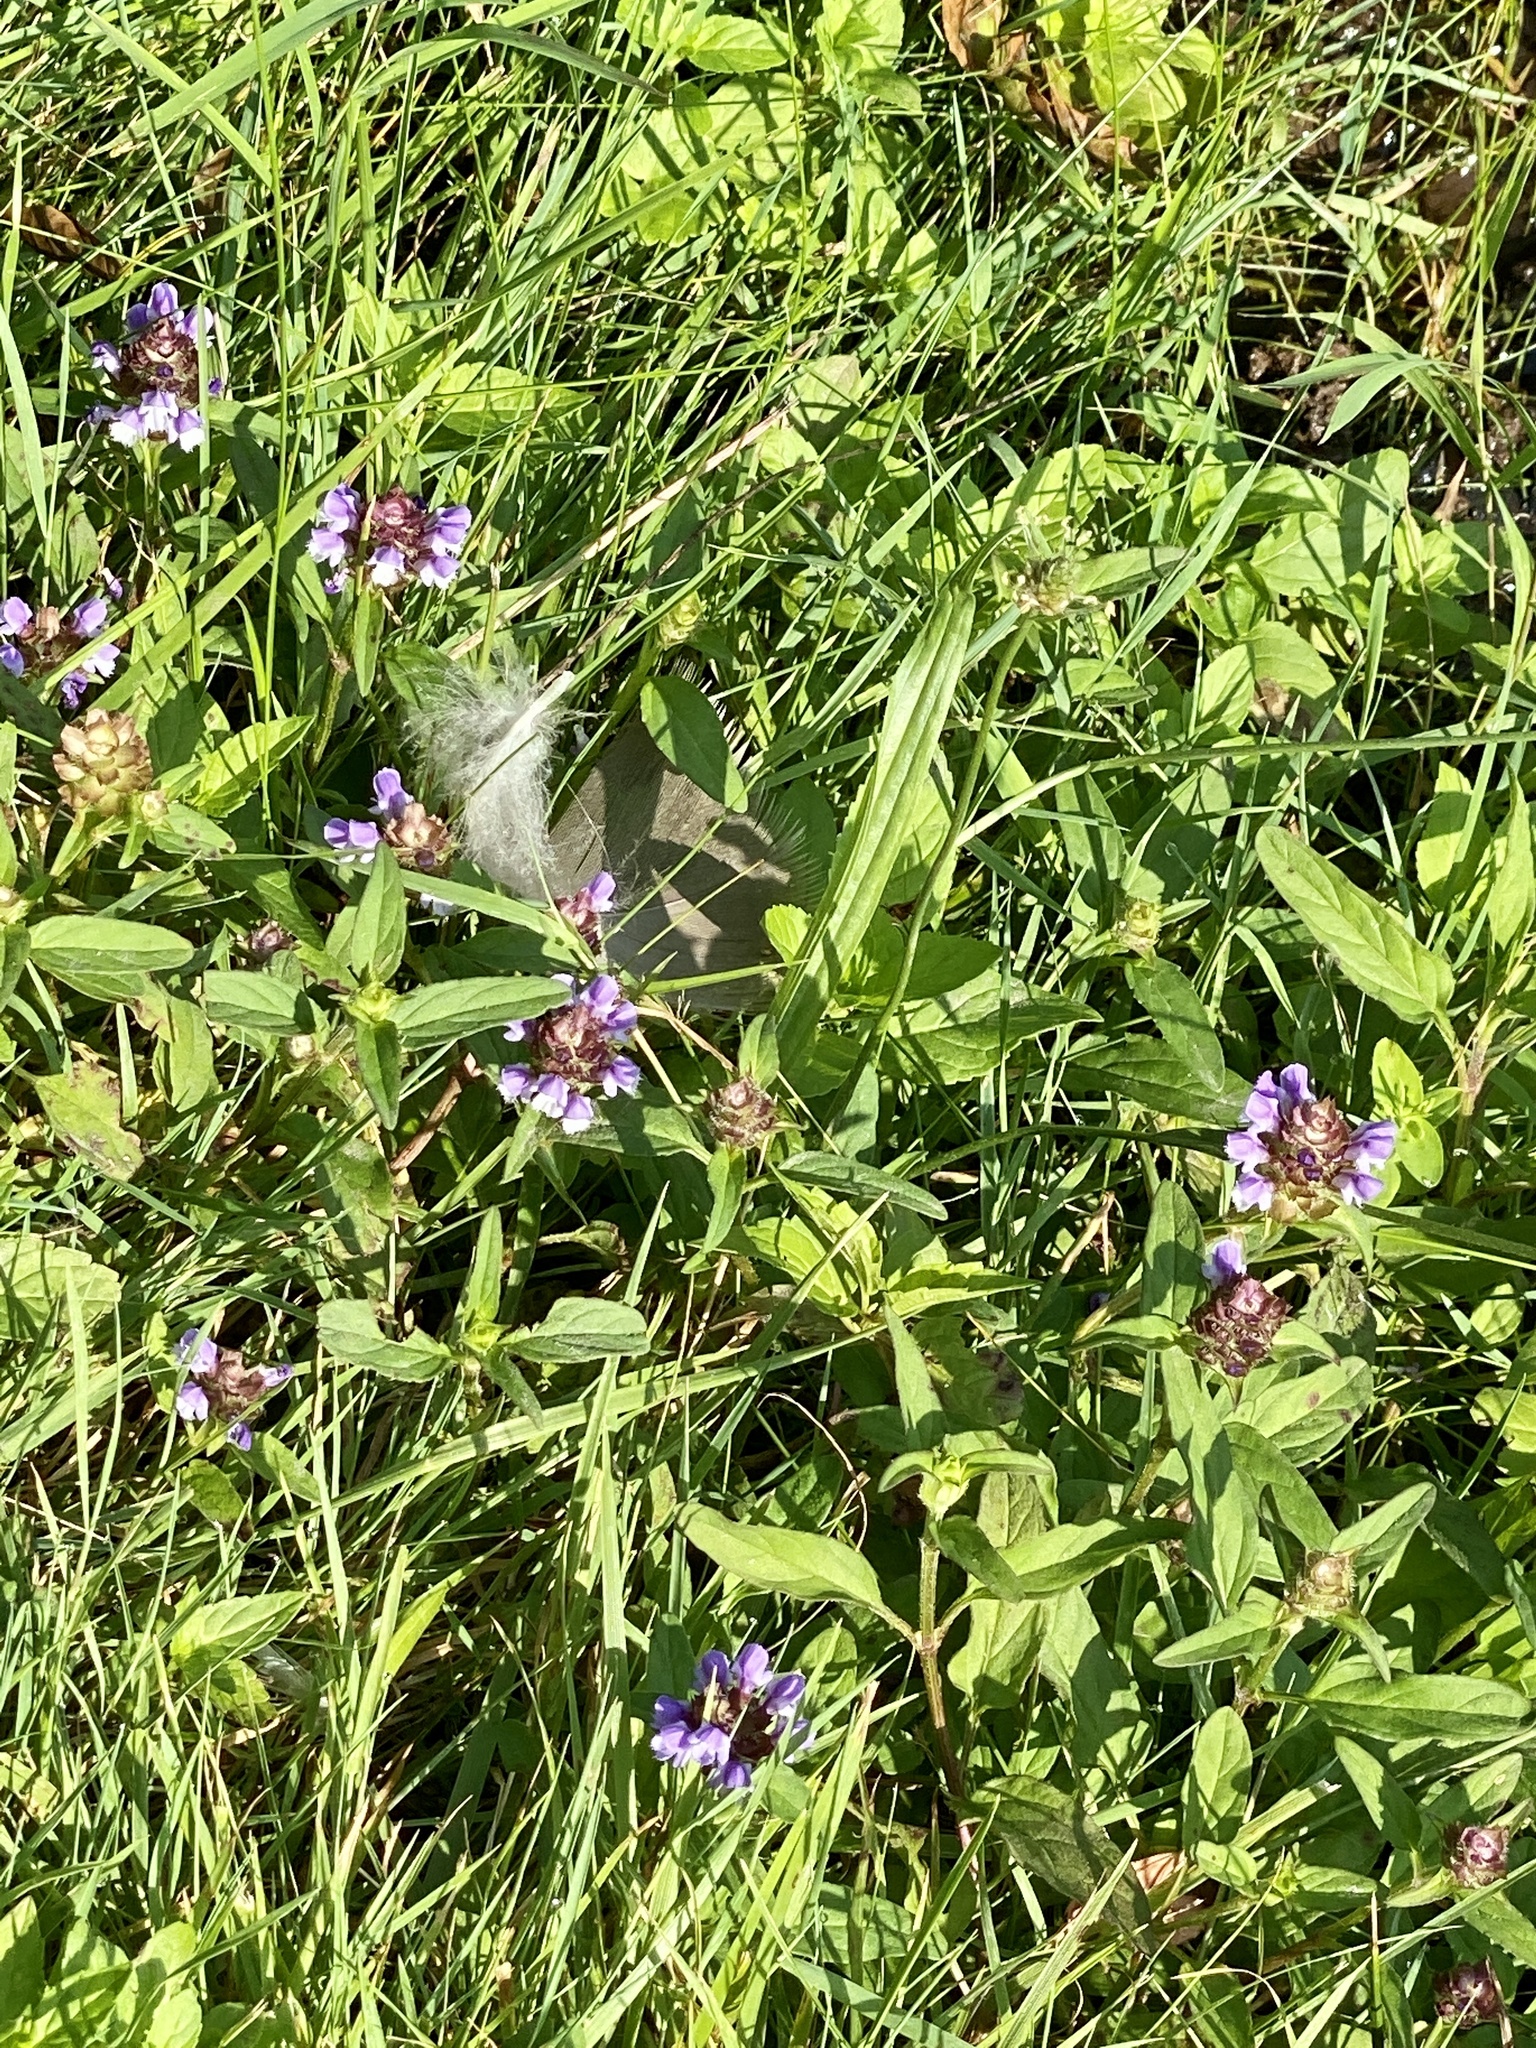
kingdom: Plantae
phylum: Tracheophyta
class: Magnoliopsida
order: Lamiales
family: Lamiaceae
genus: Prunella
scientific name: Prunella vulgaris
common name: Heal-all
